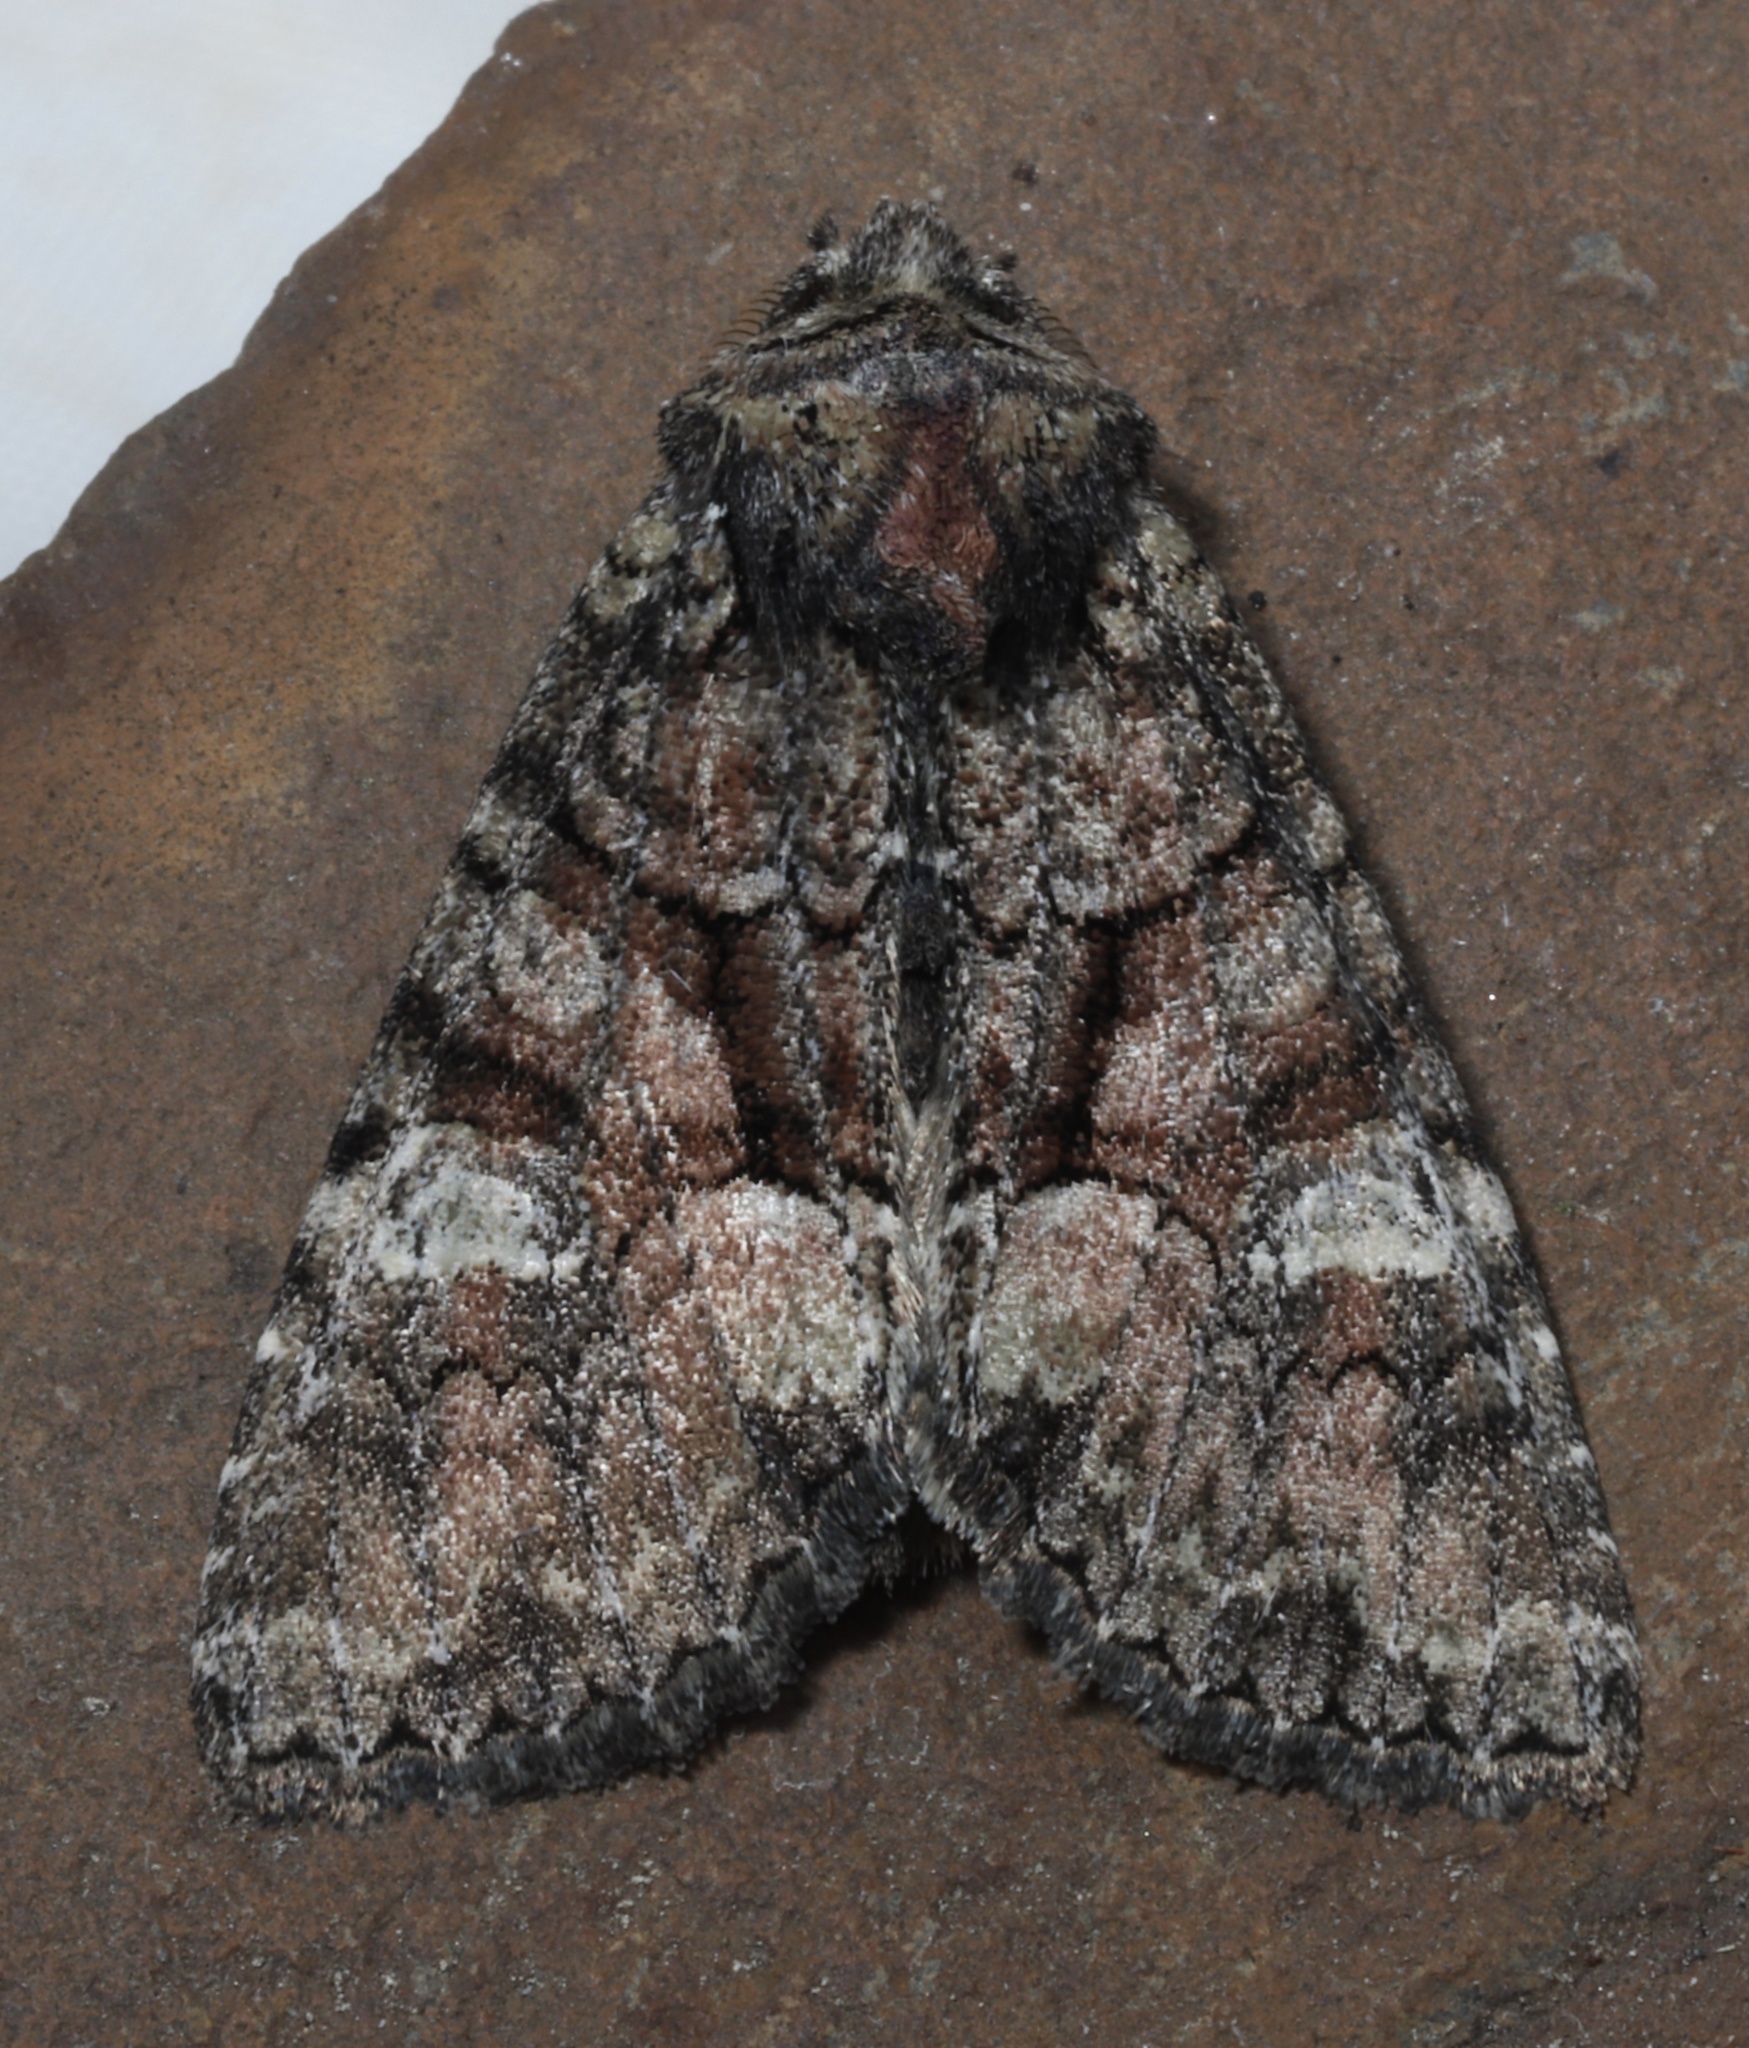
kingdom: Animalia
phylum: Arthropoda
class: Insecta
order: Lepidoptera
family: Noctuidae
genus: Fishia
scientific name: Fishia illocata
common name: Wandering brocade moth
